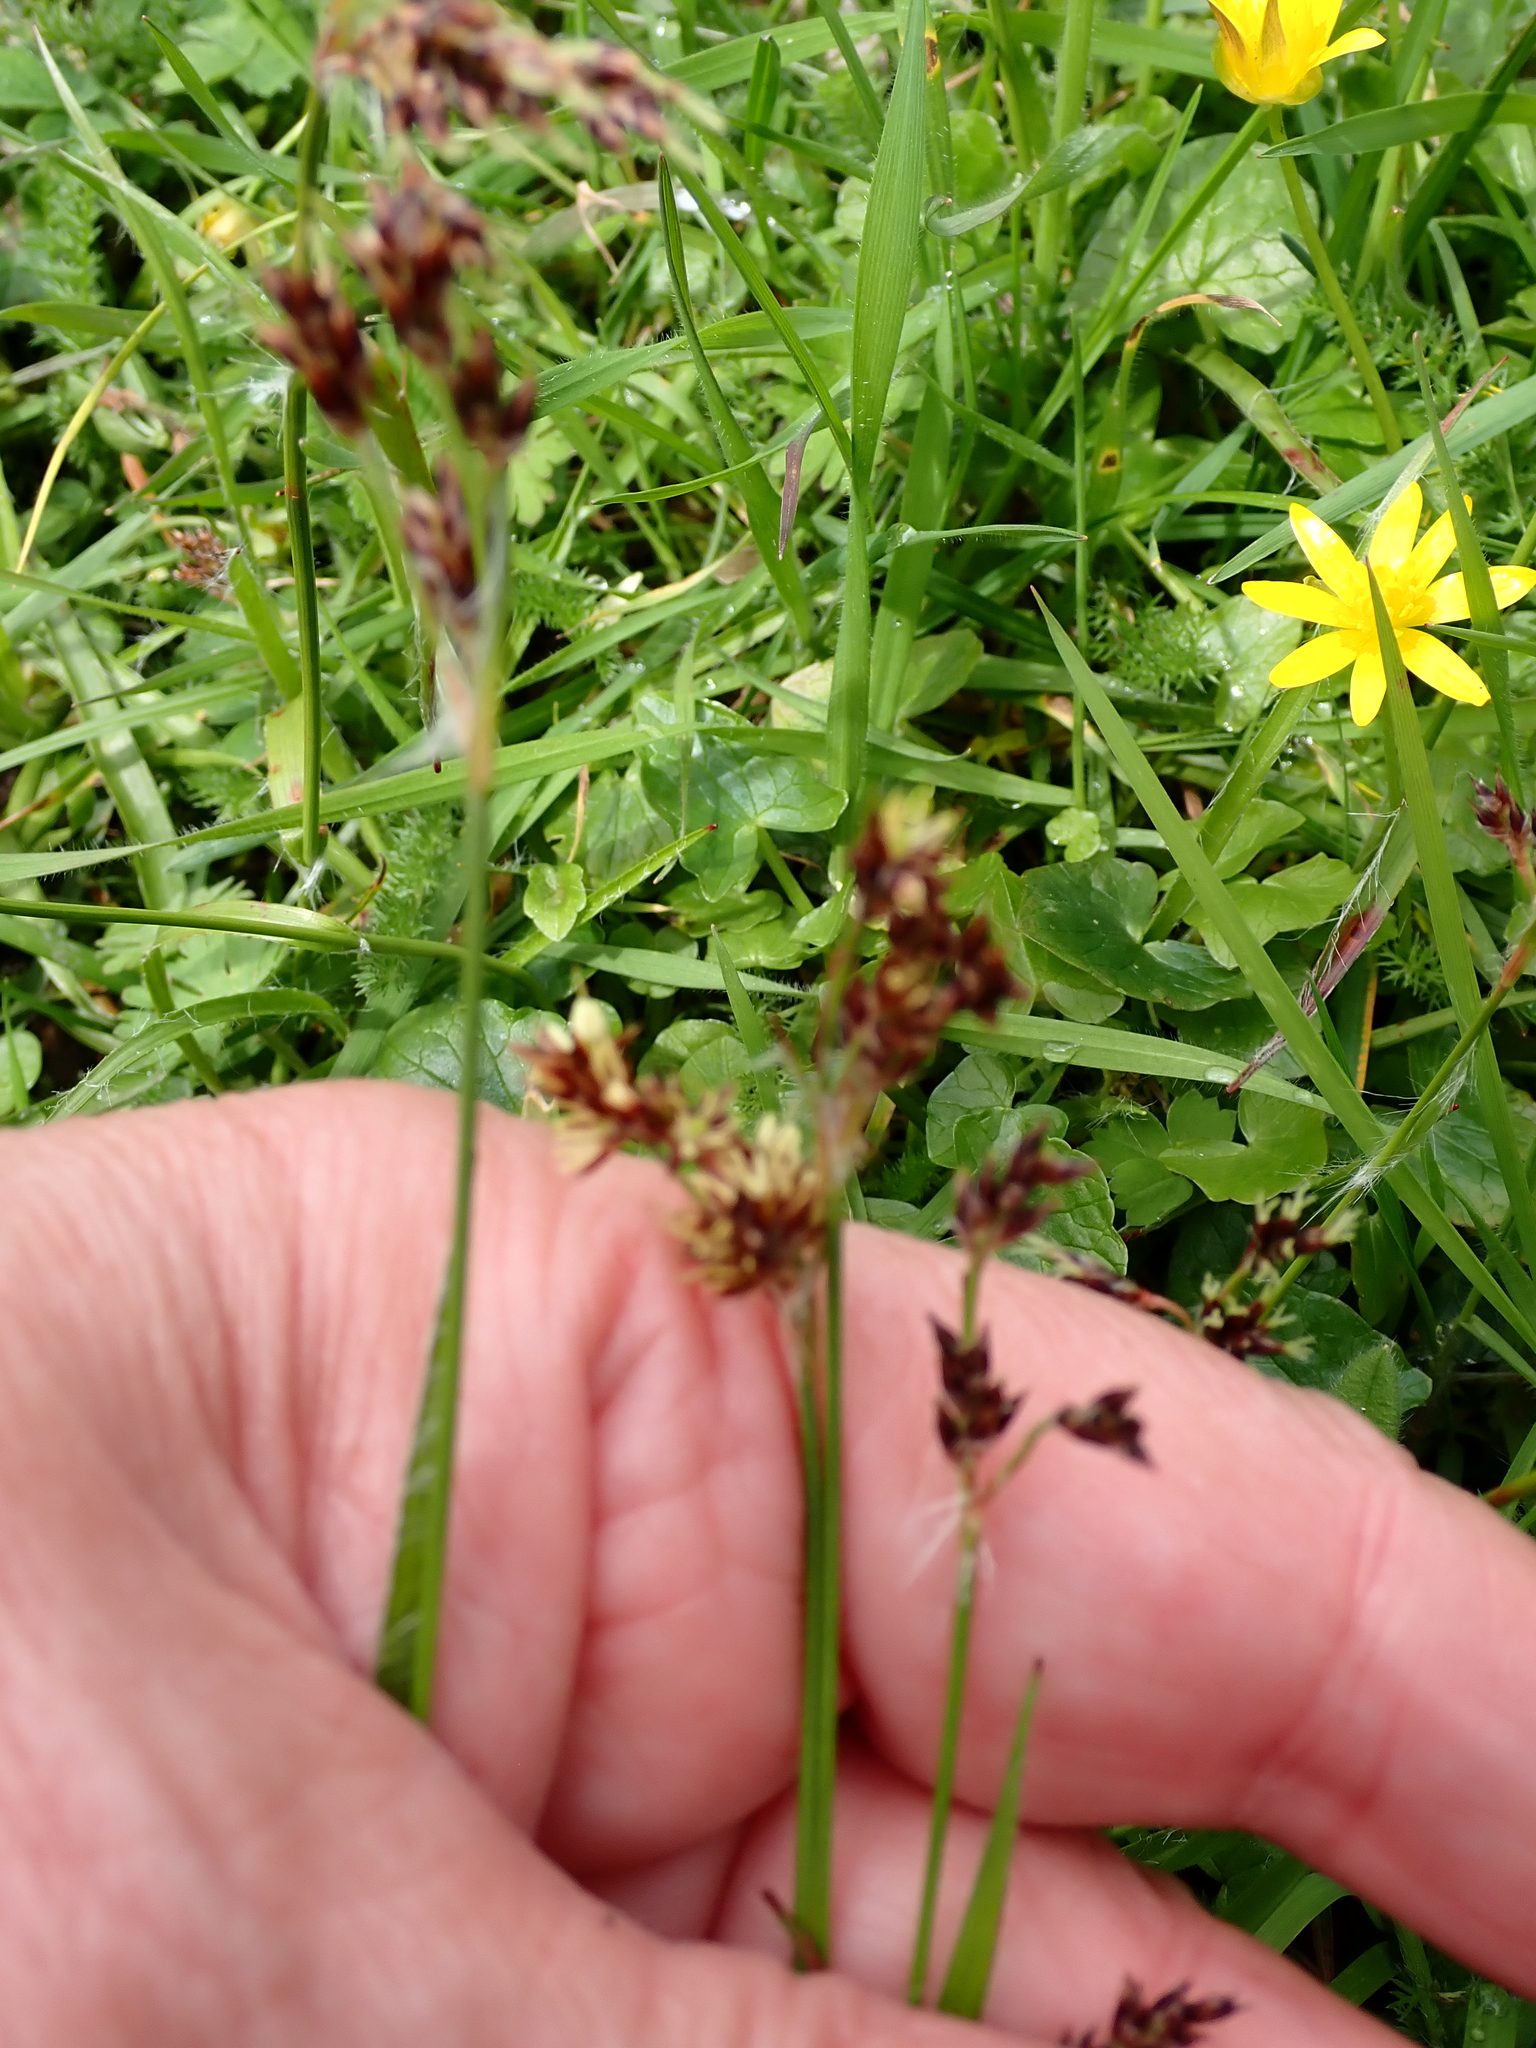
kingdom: Plantae
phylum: Tracheophyta
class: Liliopsida
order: Poales
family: Juncaceae
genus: Luzula
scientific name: Luzula campestris
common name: Field wood-rush
